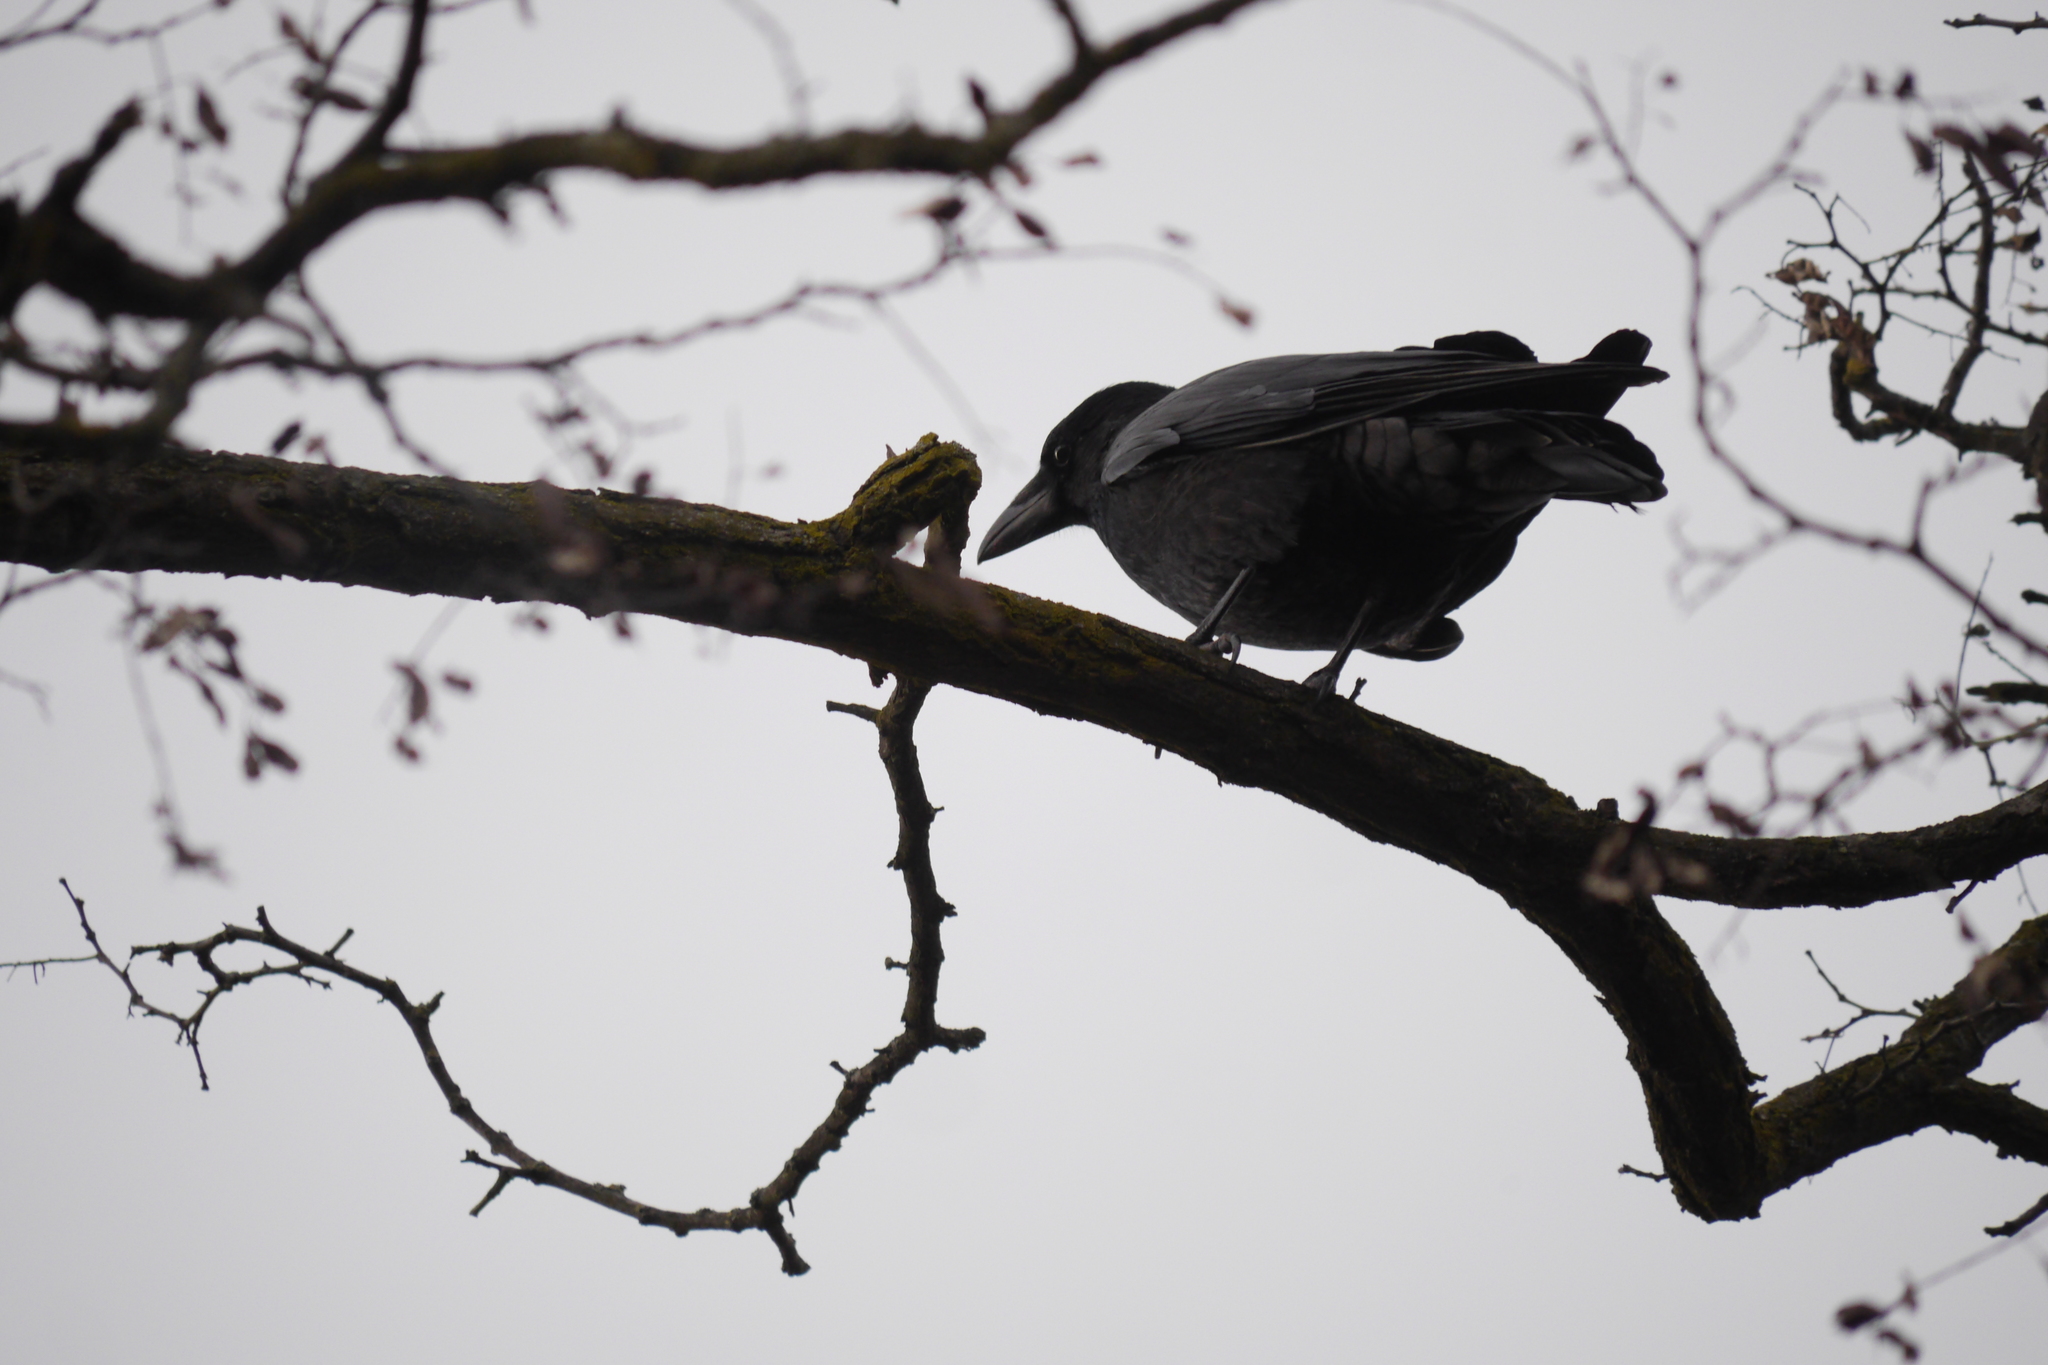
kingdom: Animalia
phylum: Chordata
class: Aves
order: Passeriformes
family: Corvidae
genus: Corvus
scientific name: Corvus corone
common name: Carrion crow
